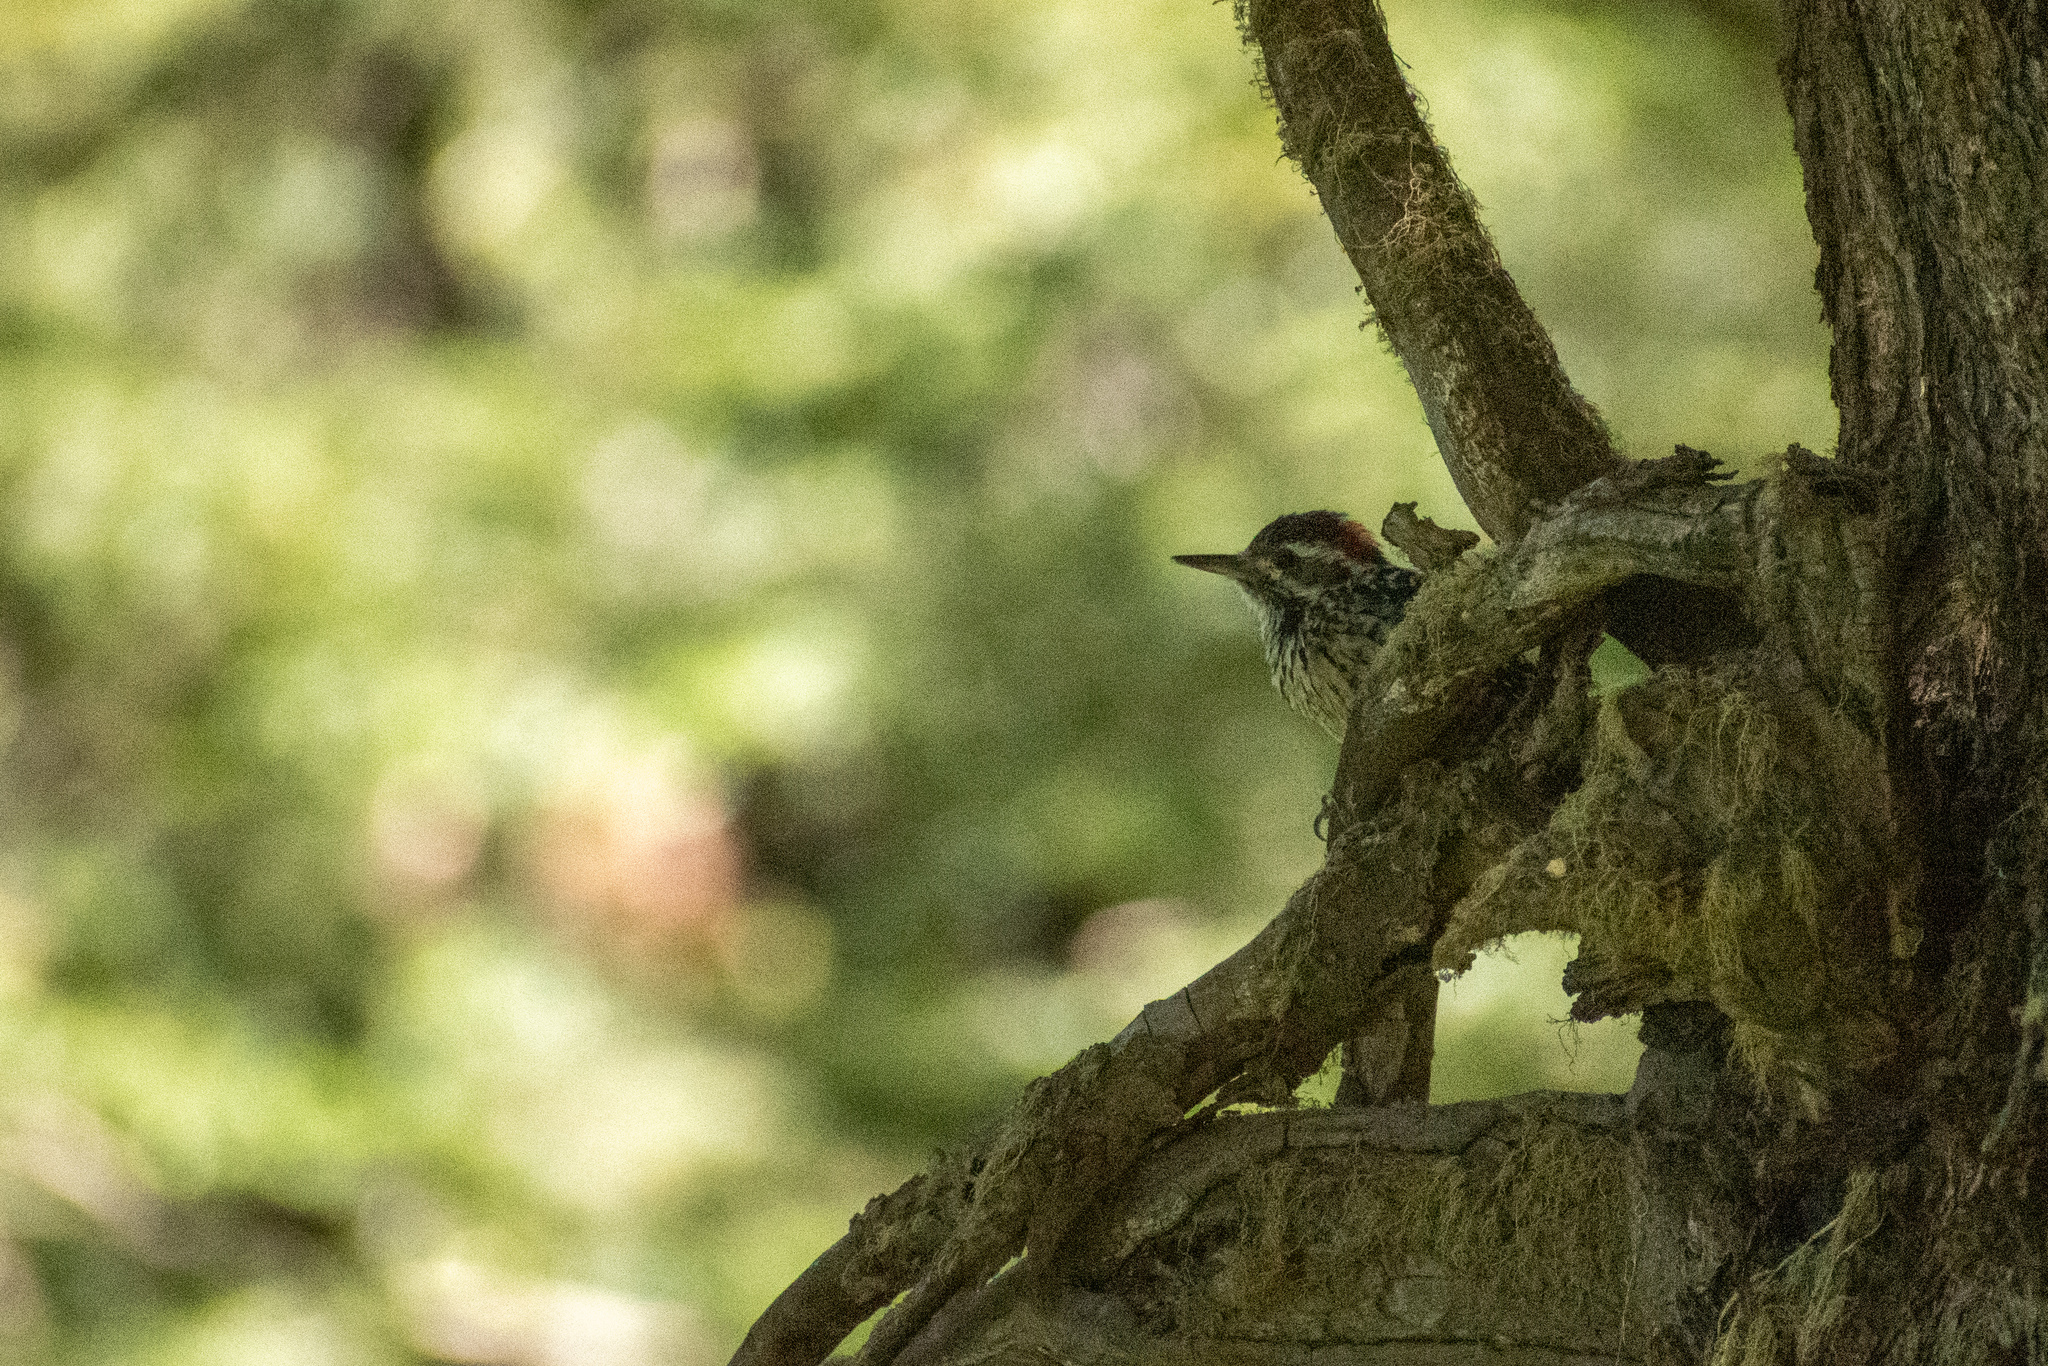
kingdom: Animalia
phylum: Chordata
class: Aves
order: Piciformes
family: Picidae
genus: Veniliornis
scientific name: Veniliornis lignarius
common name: Striped woodpecker
